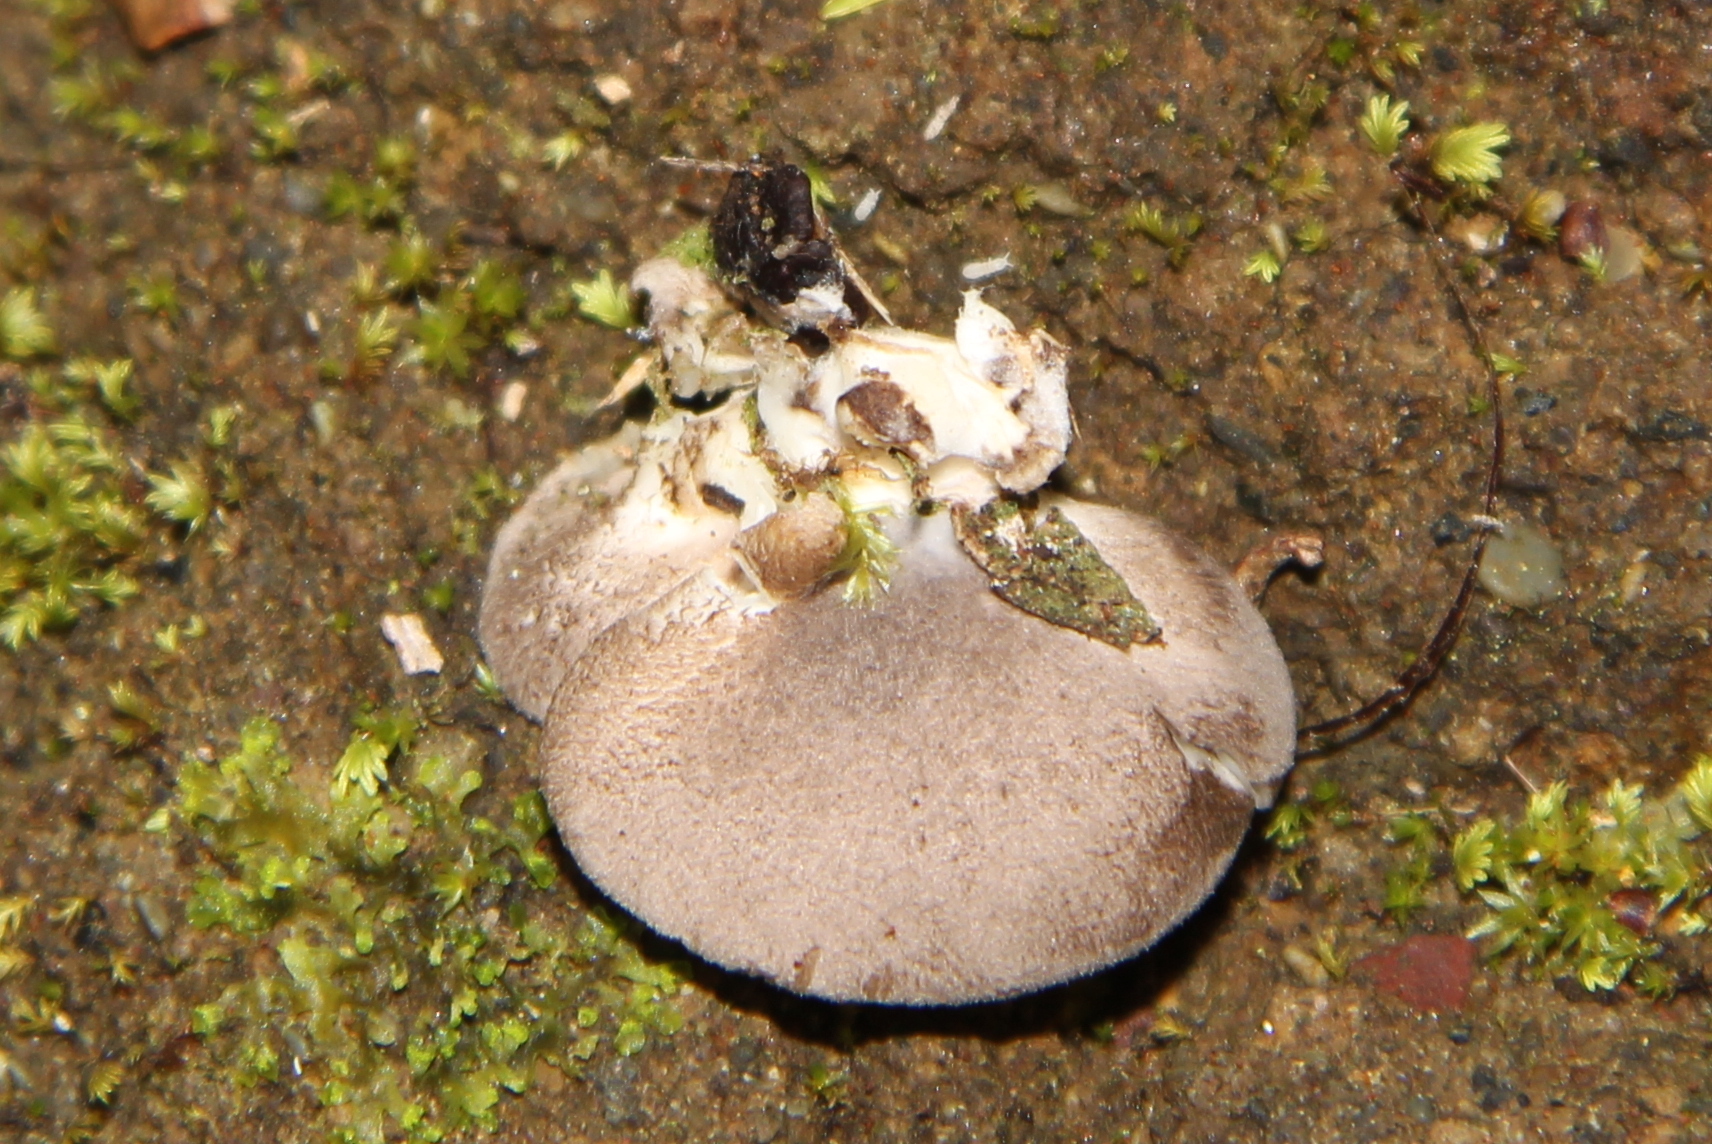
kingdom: Fungi
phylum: Basidiomycota
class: Agaricomycetes
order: Agaricales
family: Pleurotaceae
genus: Pleurotus
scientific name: Pleurotus australis
